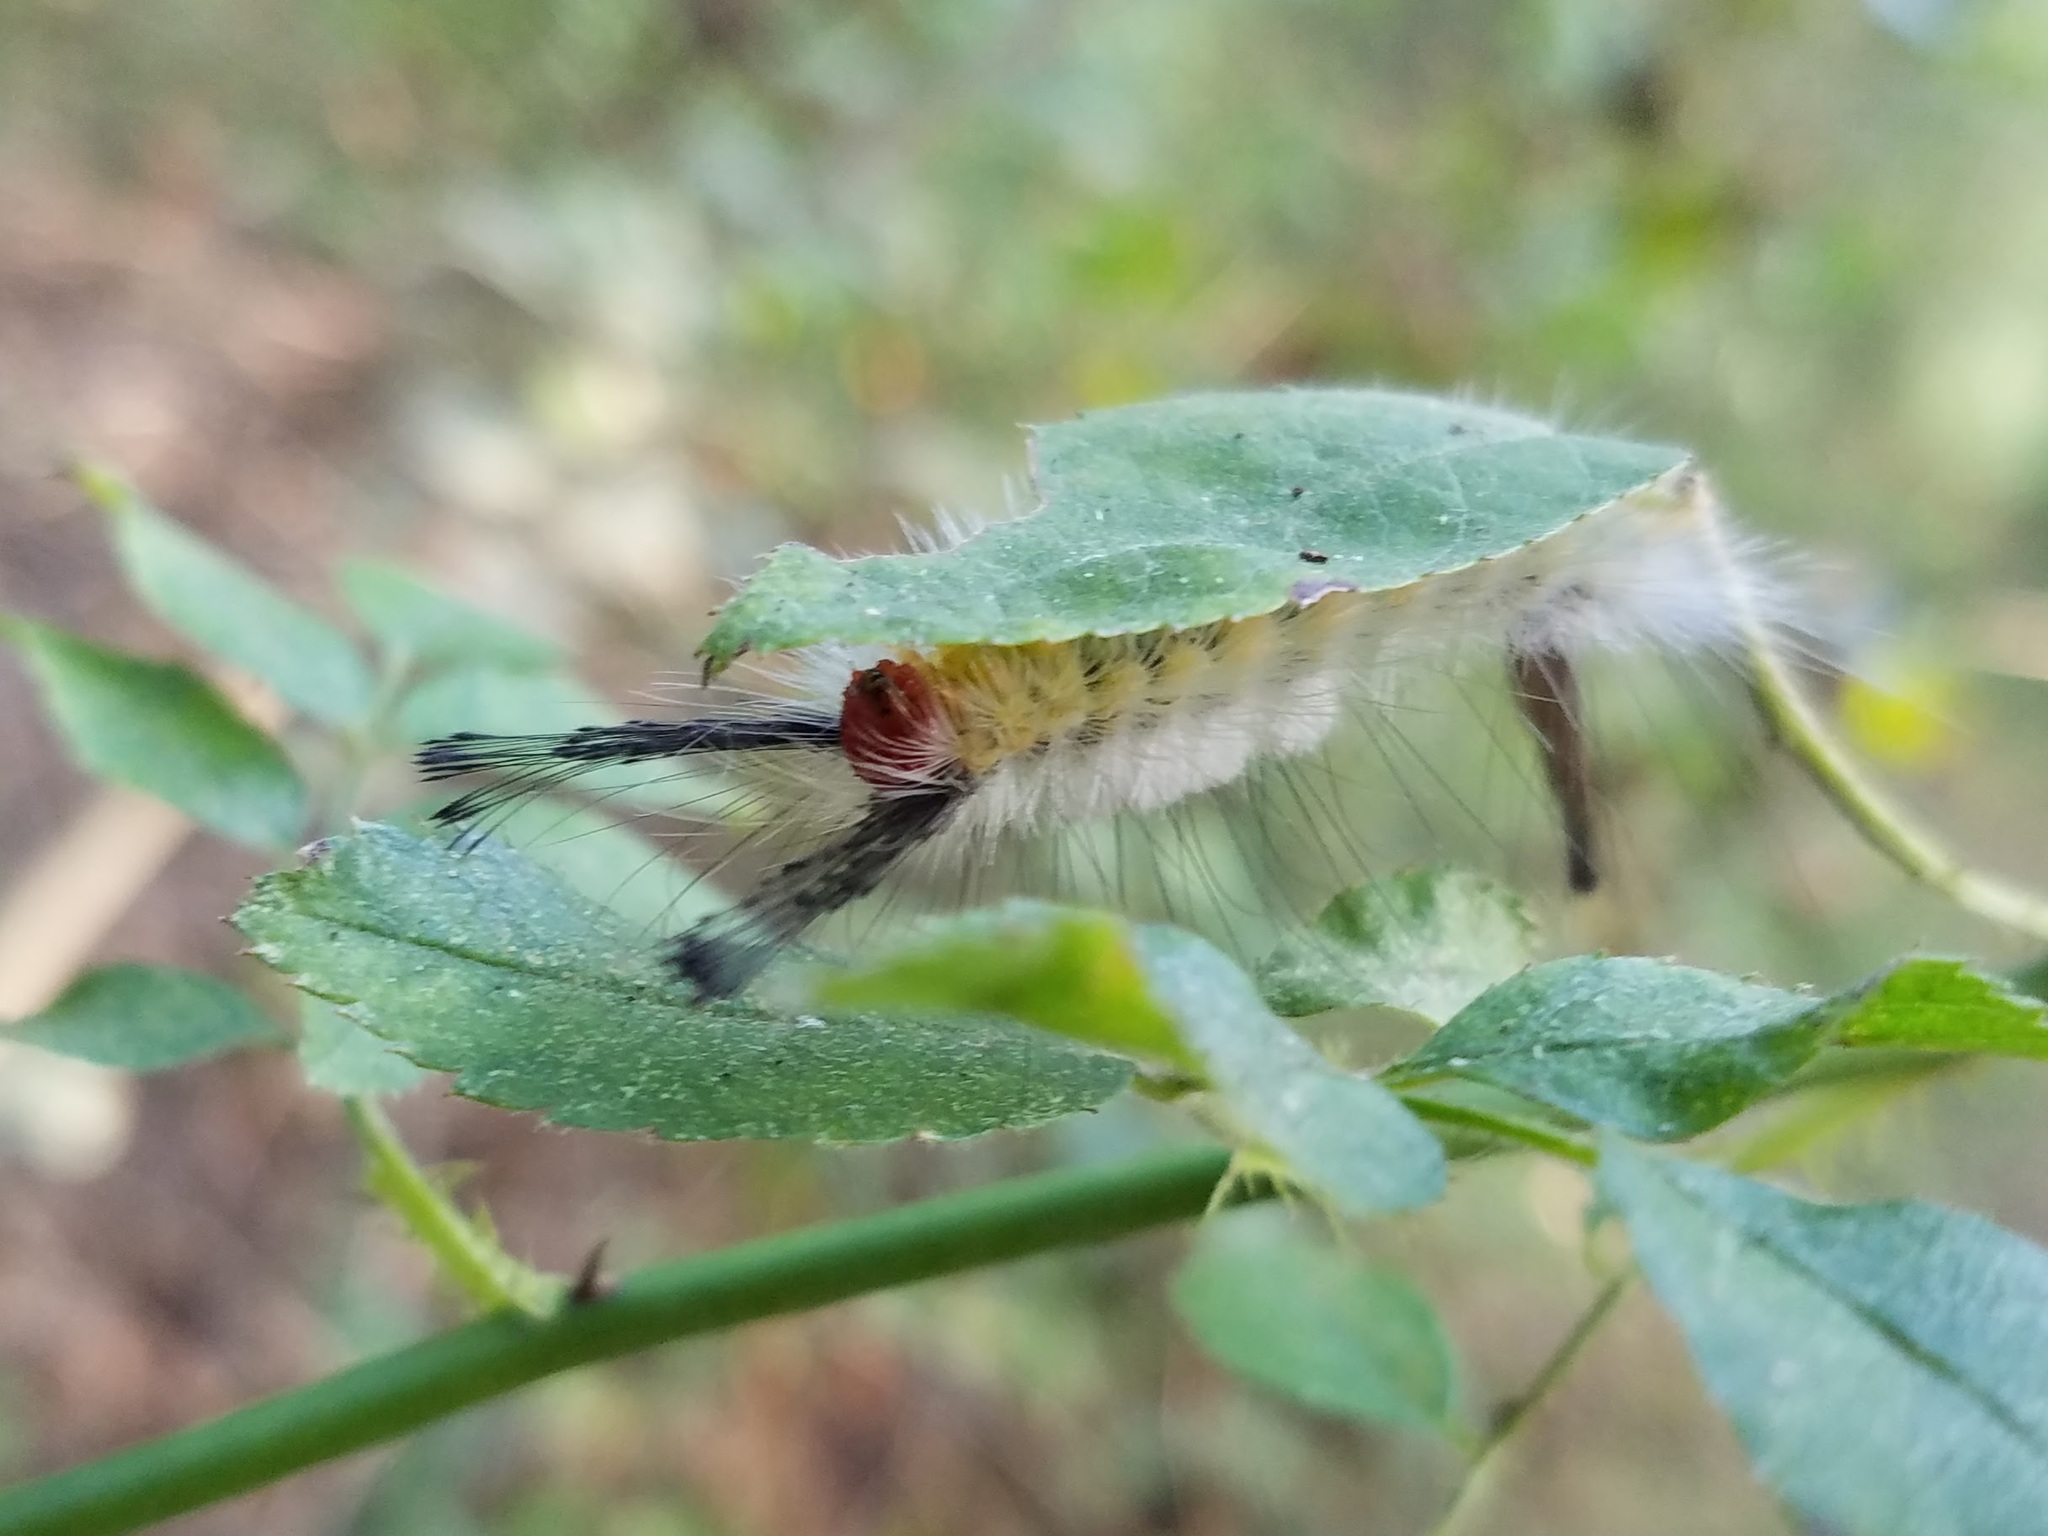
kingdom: Animalia
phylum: Arthropoda
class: Insecta
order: Lepidoptera
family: Erebidae
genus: Orgyia
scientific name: Orgyia leucostigma
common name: White-marked tussock moth
